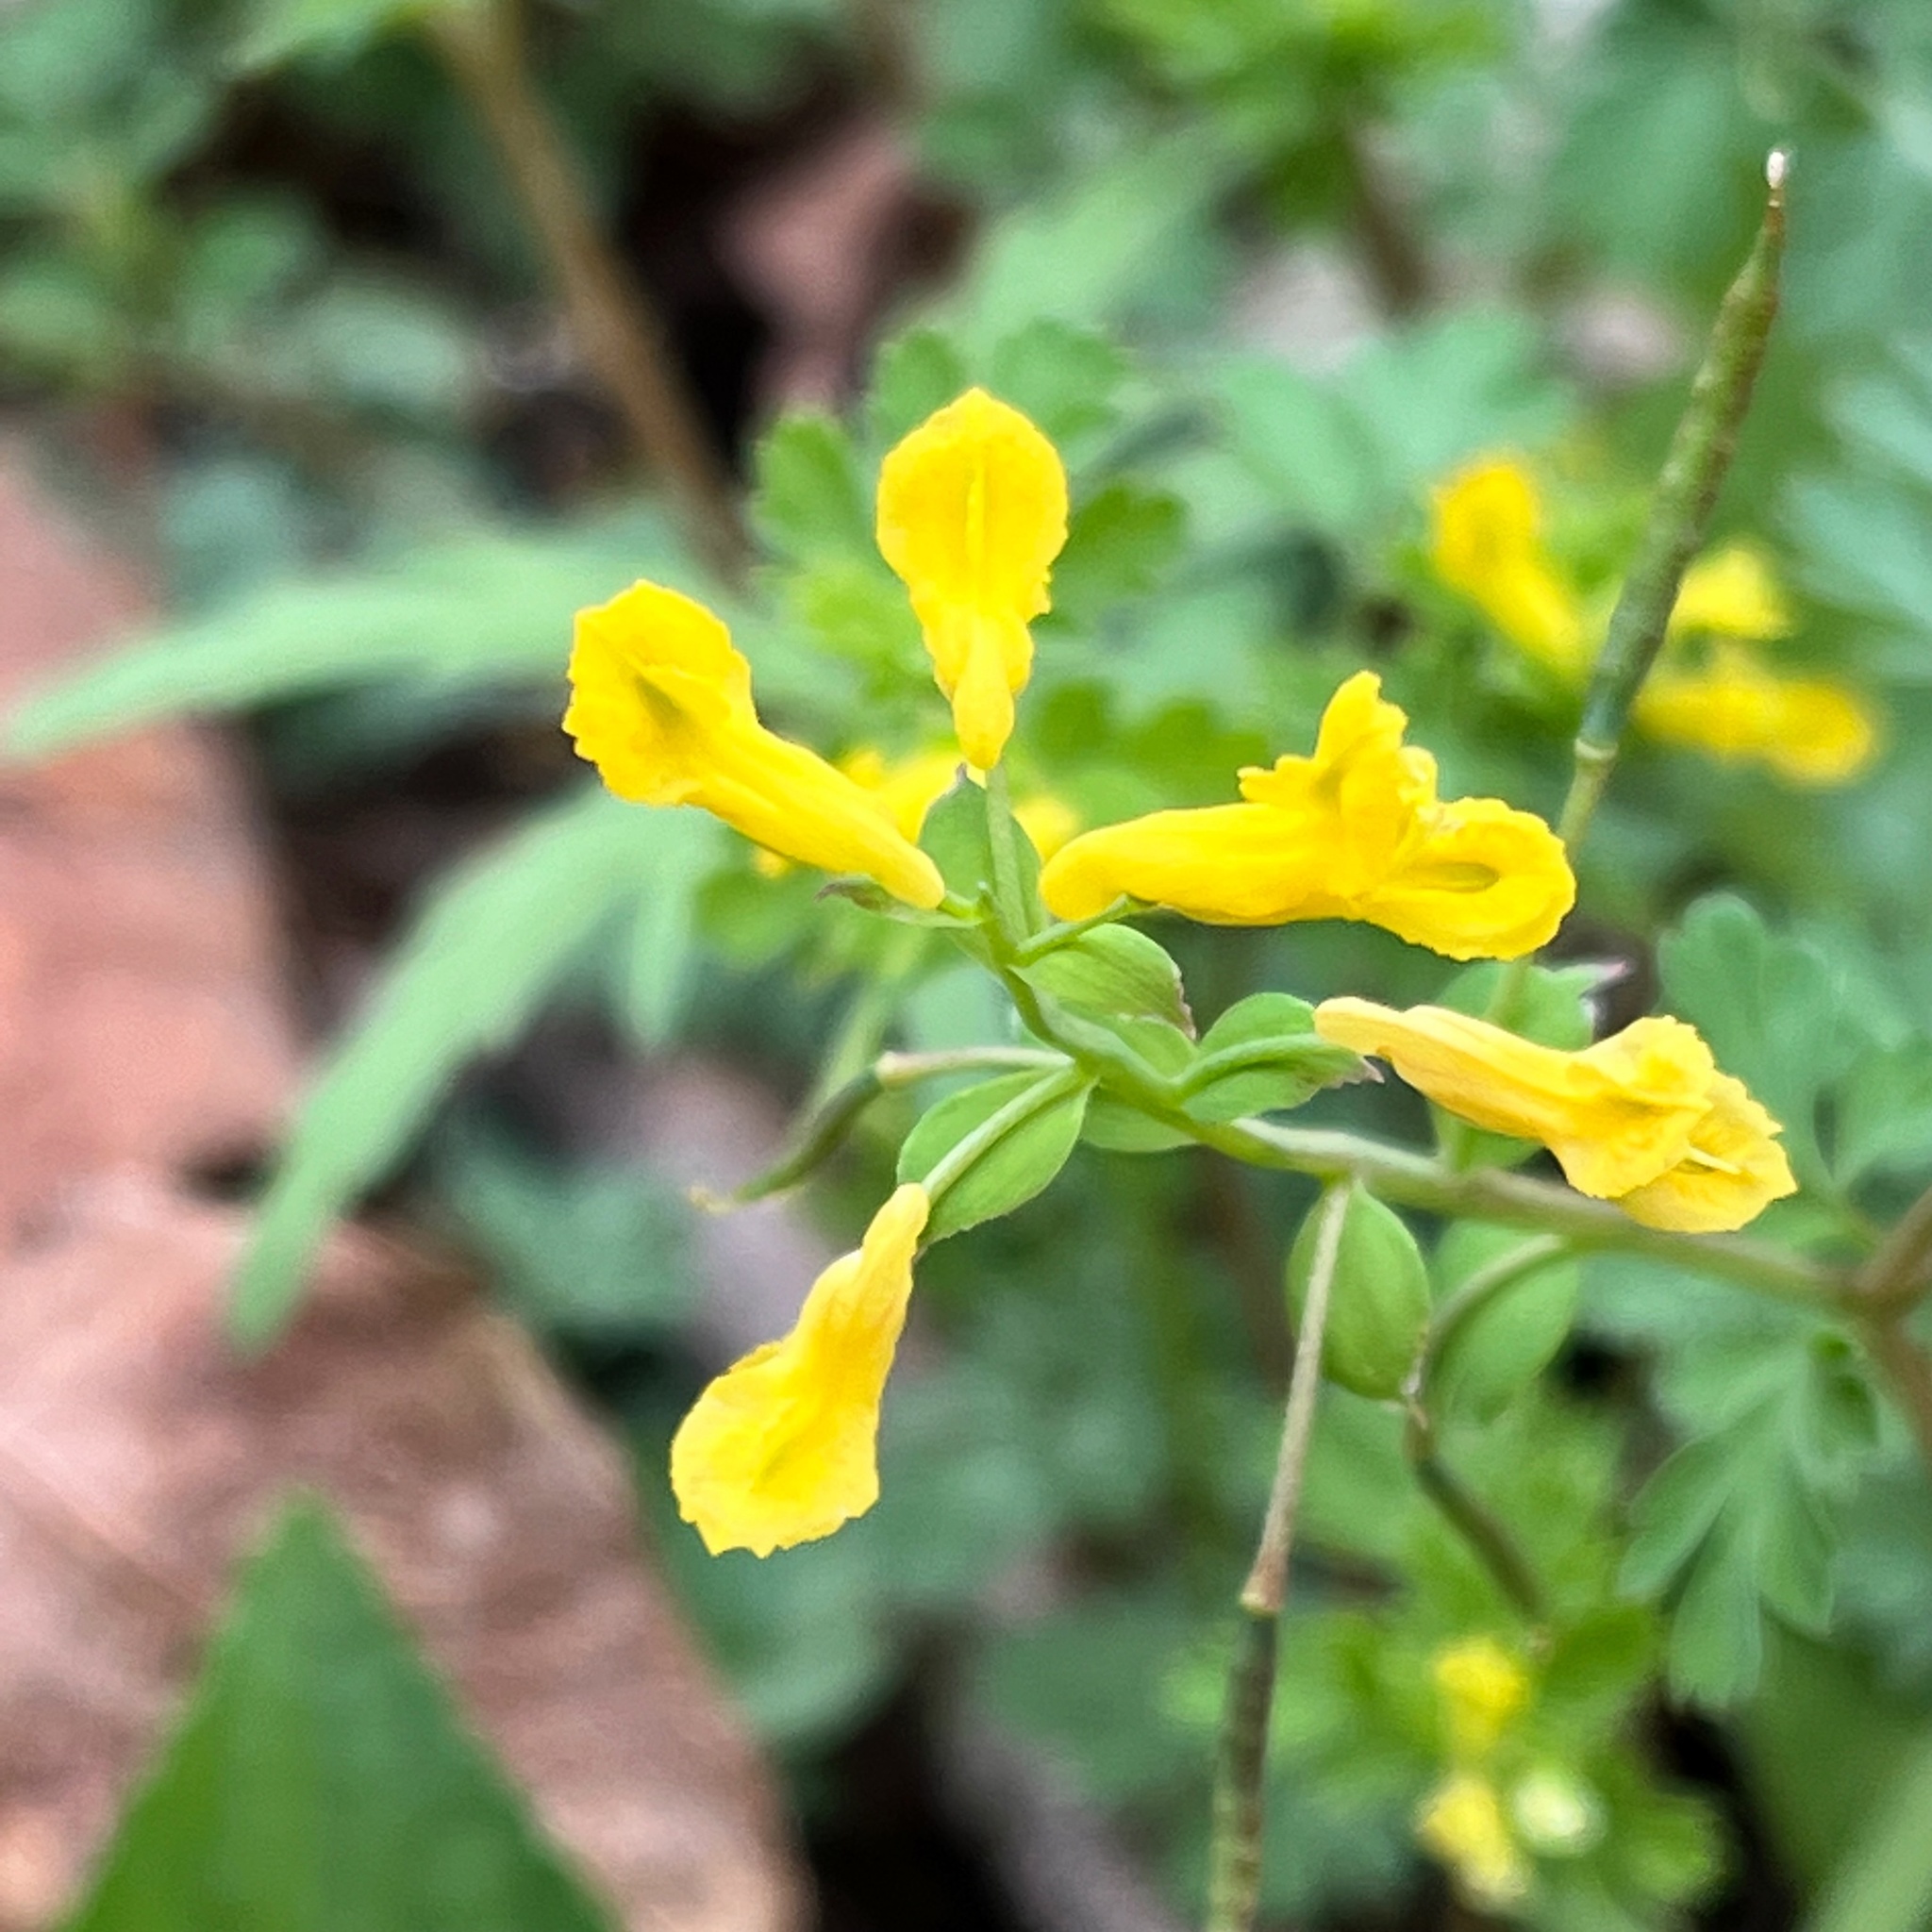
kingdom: Plantae
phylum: Tracheophyta
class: Magnoliopsida
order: Ranunculales
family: Papaveraceae
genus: Corydalis
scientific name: Corydalis flavula
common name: Yellow corydalis
